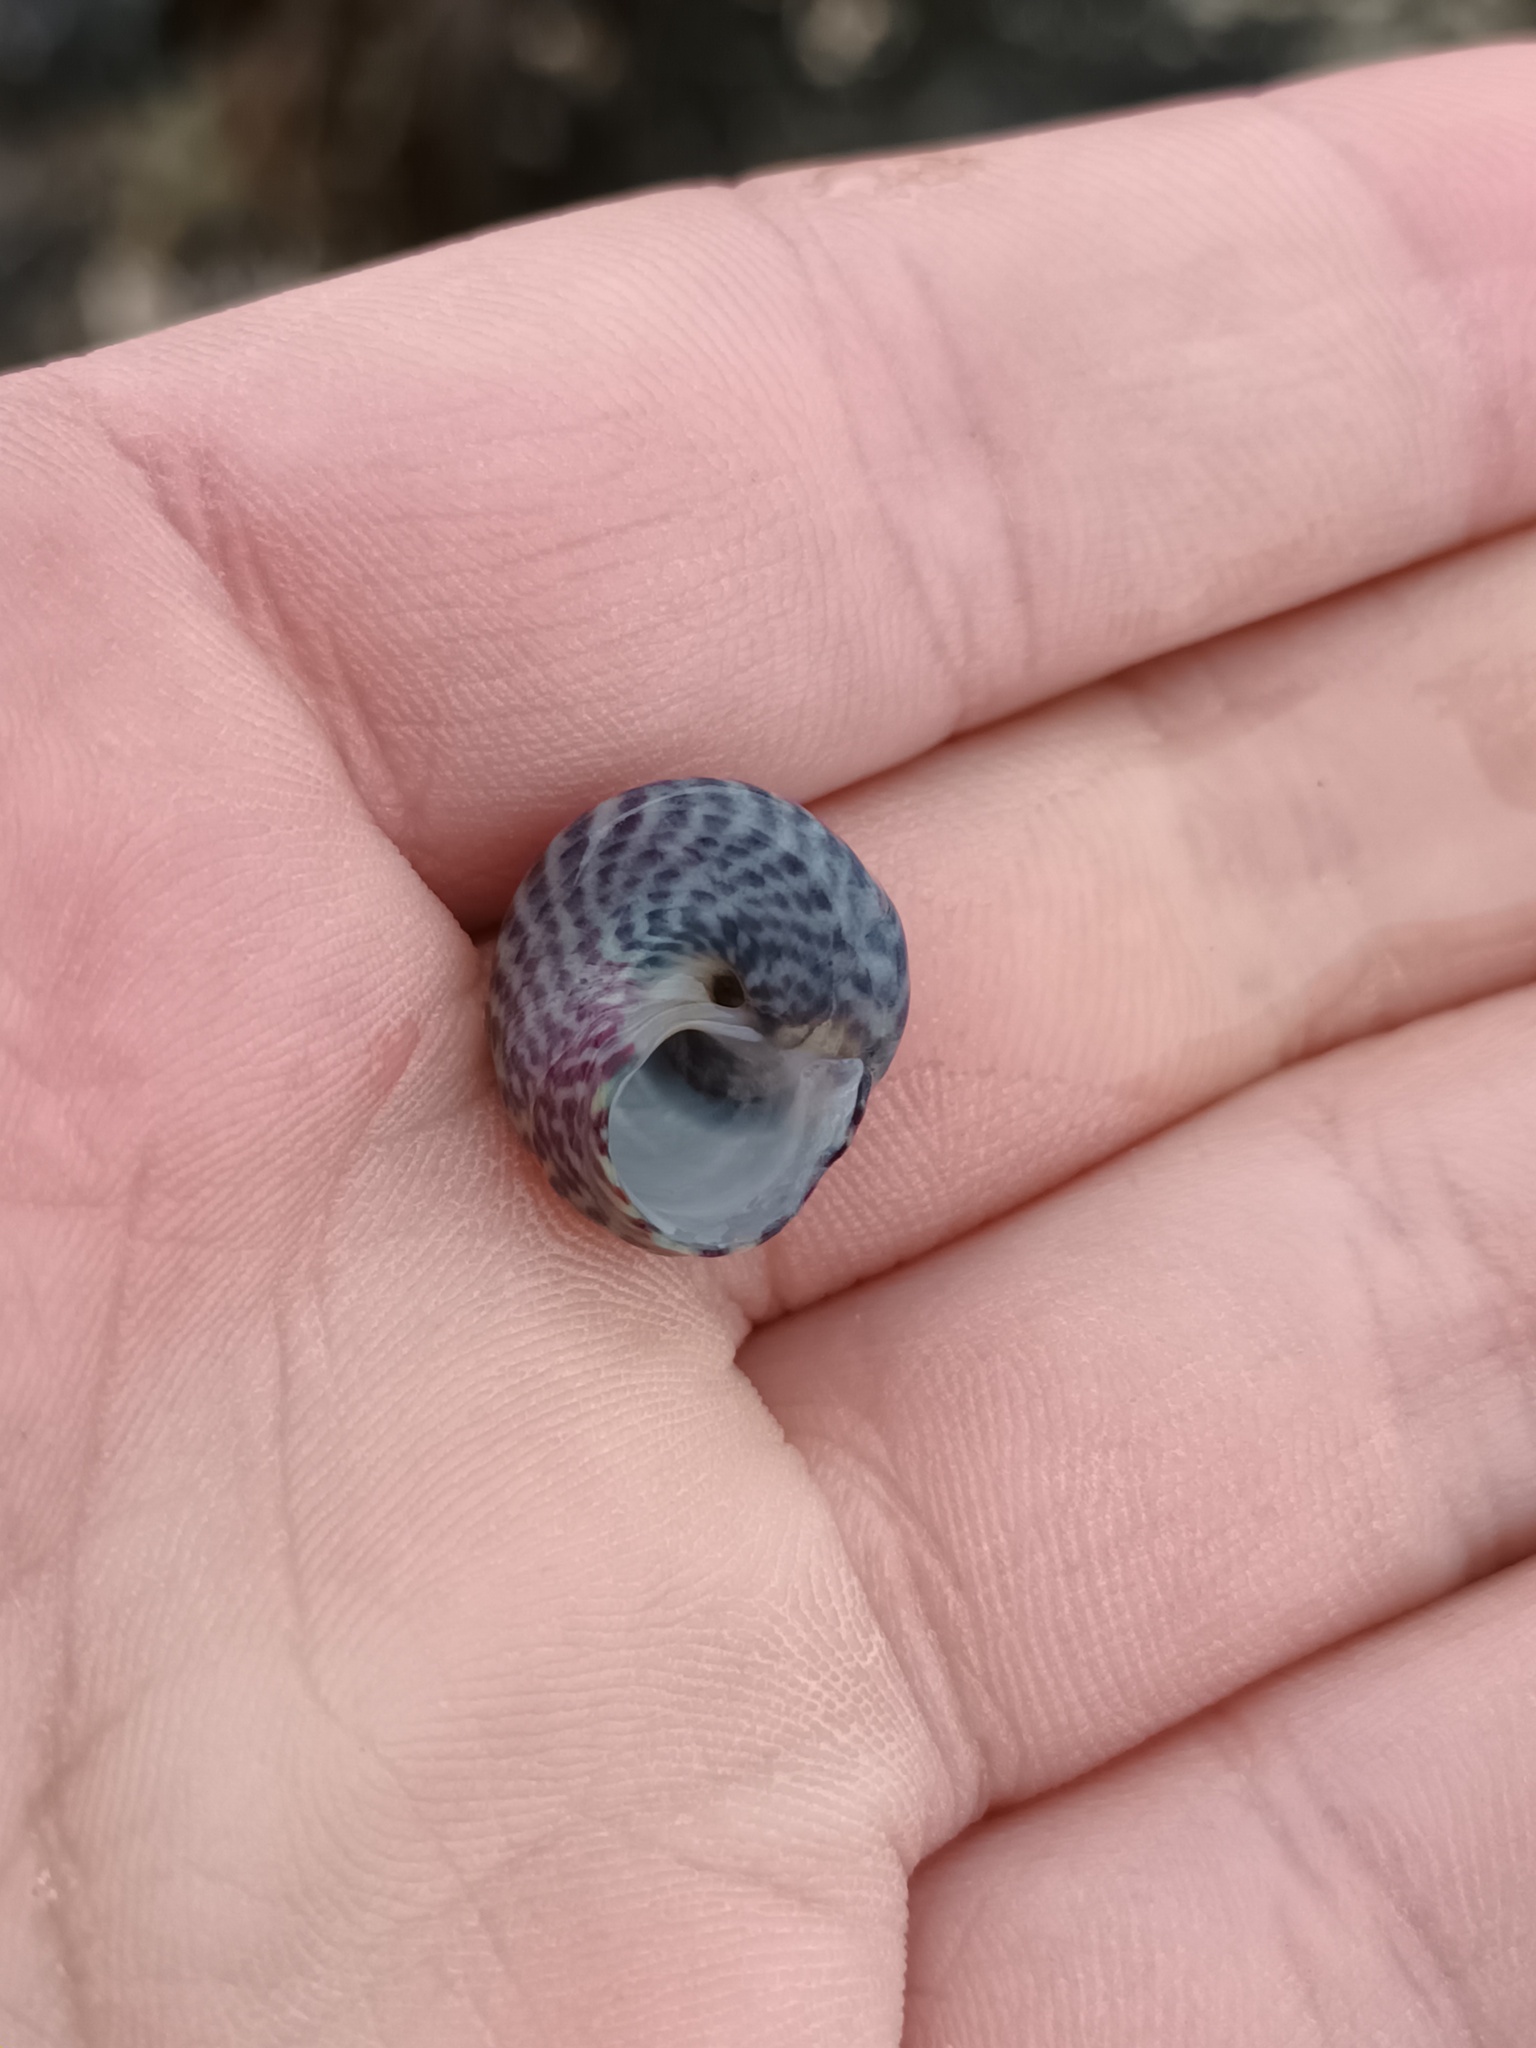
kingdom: Animalia
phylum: Mollusca
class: Gastropoda
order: Trochida
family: Trochidae
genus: Steromphala
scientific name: Steromphala umbilicalis
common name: Flat top shell
